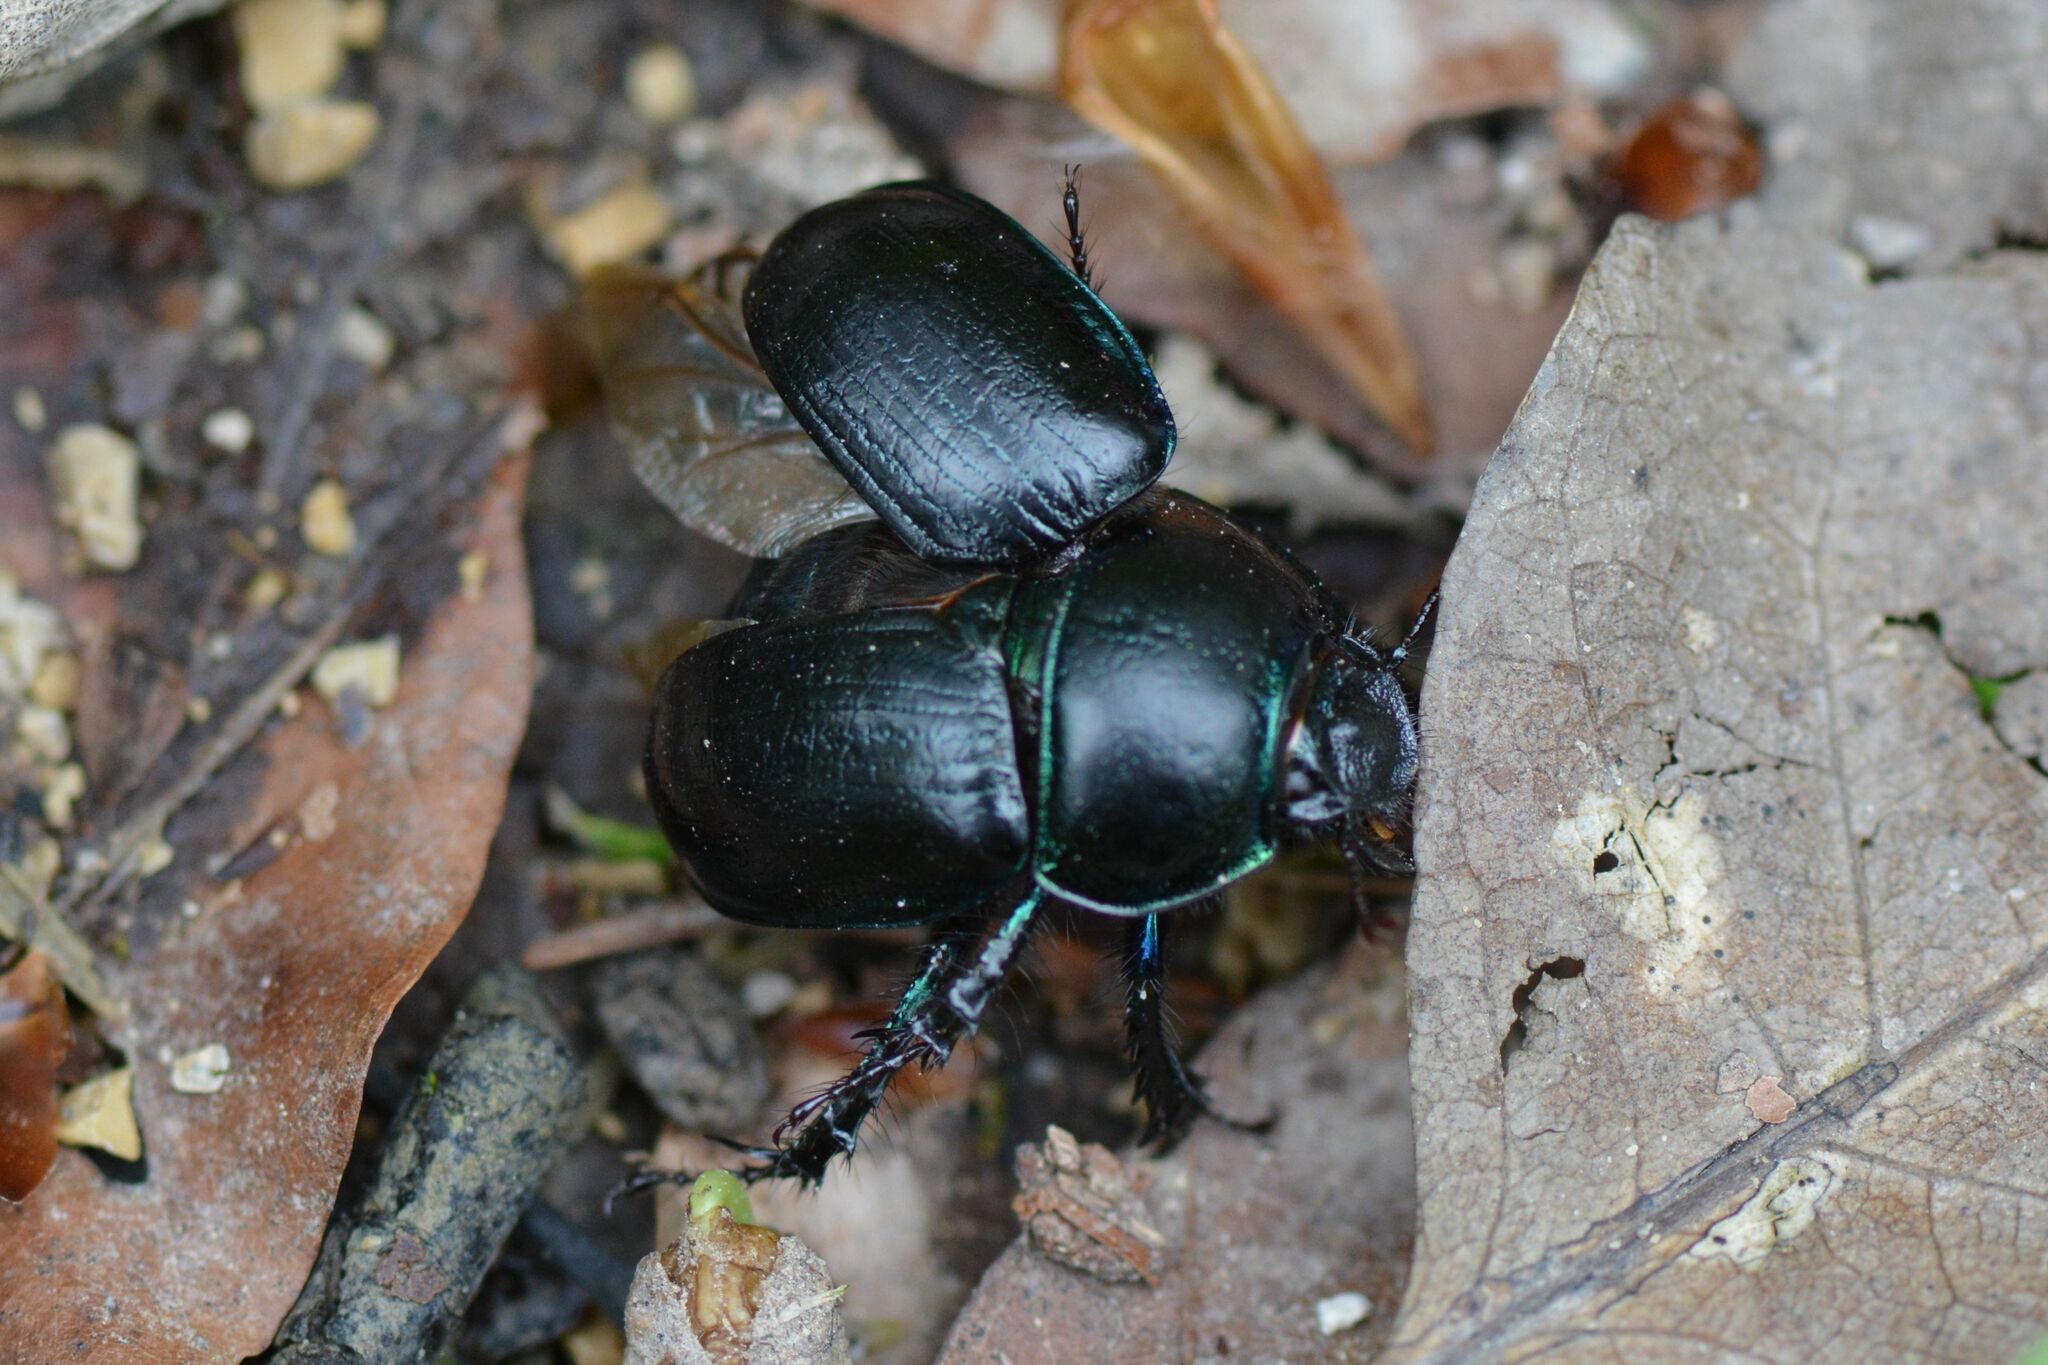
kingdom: Animalia
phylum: Arthropoda
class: Insecta
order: Coleoptera
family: Geotrupidae
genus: Anoplotrupes
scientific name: Anoplotrupes stercorosus
